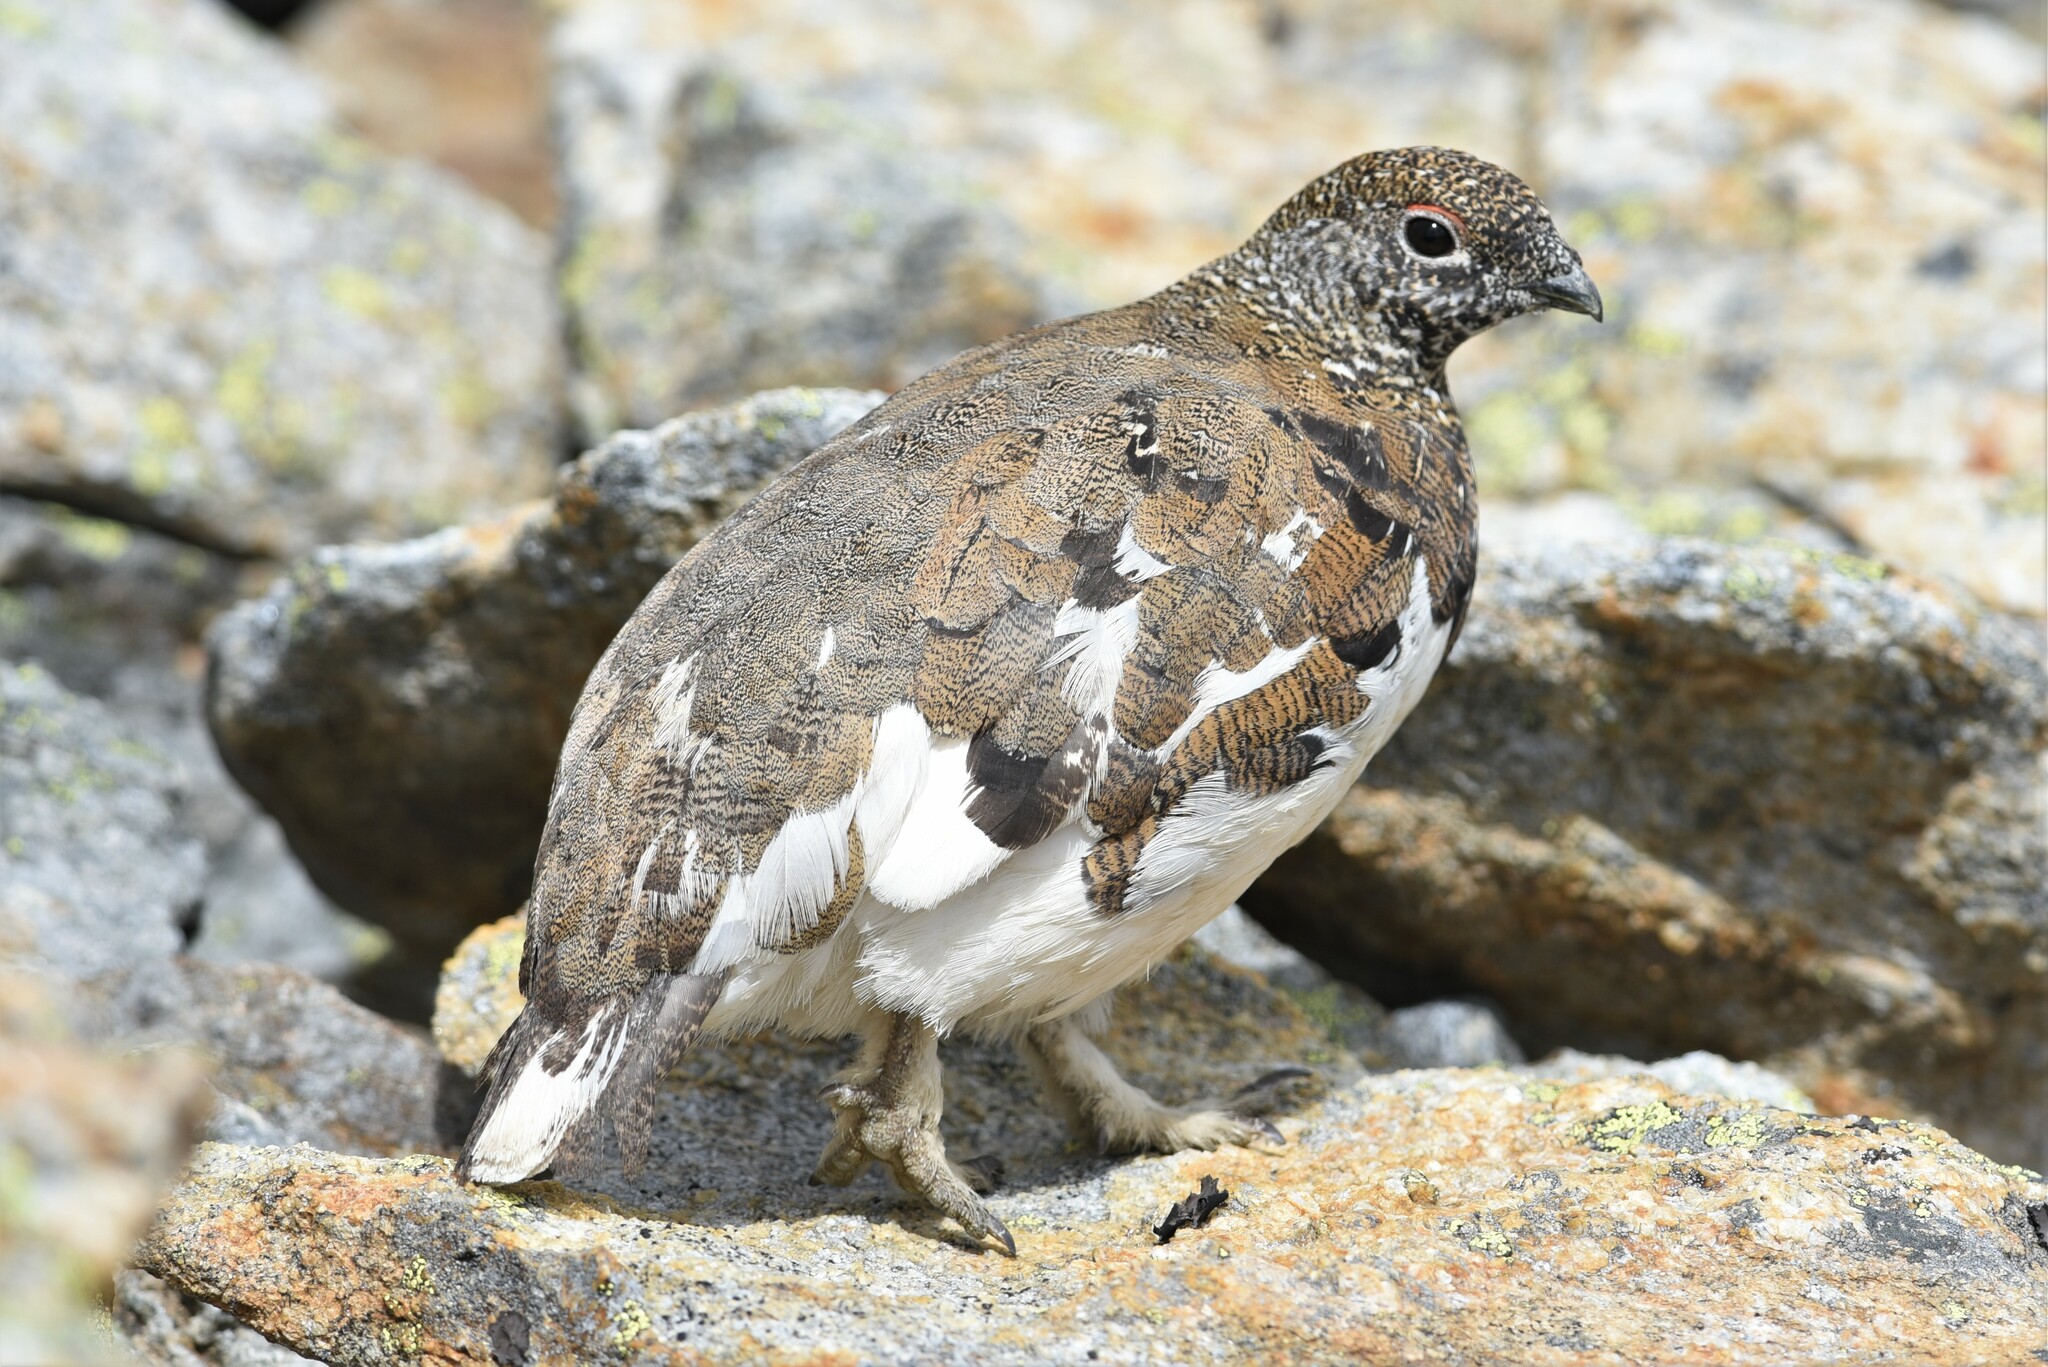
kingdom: Animalia
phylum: Chordata
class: Aves
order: Galliformes
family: Phasianidae
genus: Lagopus
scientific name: Lagopus leucura
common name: White-tailed ptarmigan
